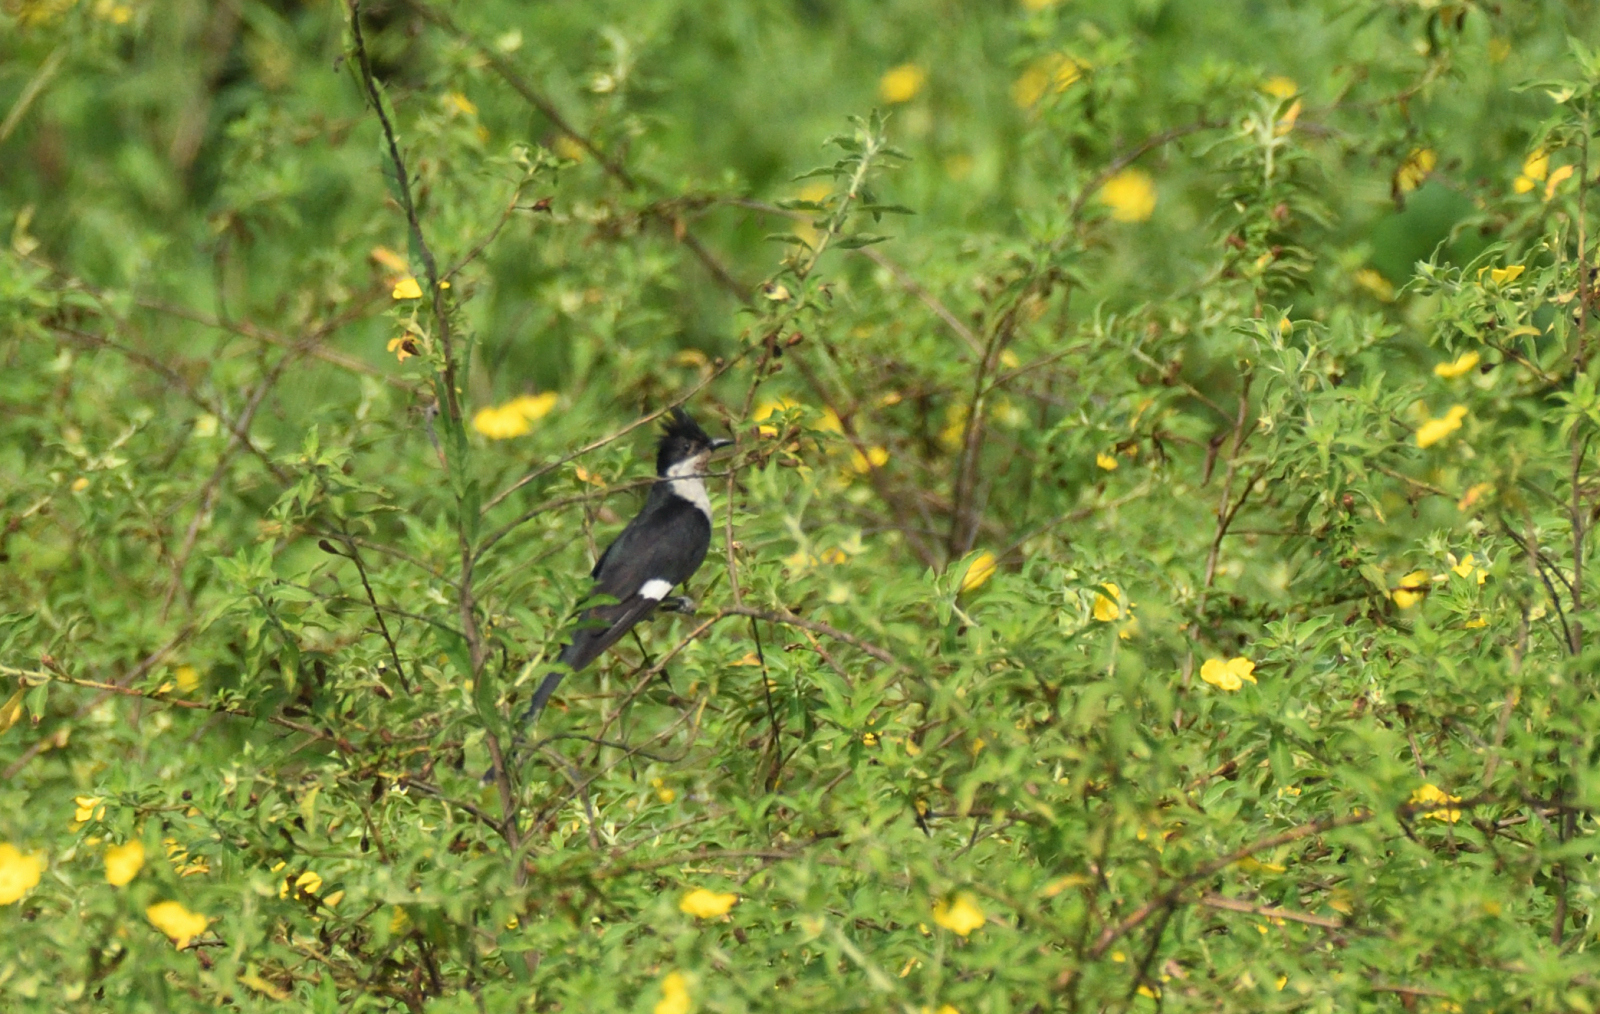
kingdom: Animalia
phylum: Chordata
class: Aves
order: Cuculiformes
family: Cuculidae
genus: Clamator
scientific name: Clamator jacobinus
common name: Jacobin cuckoo
